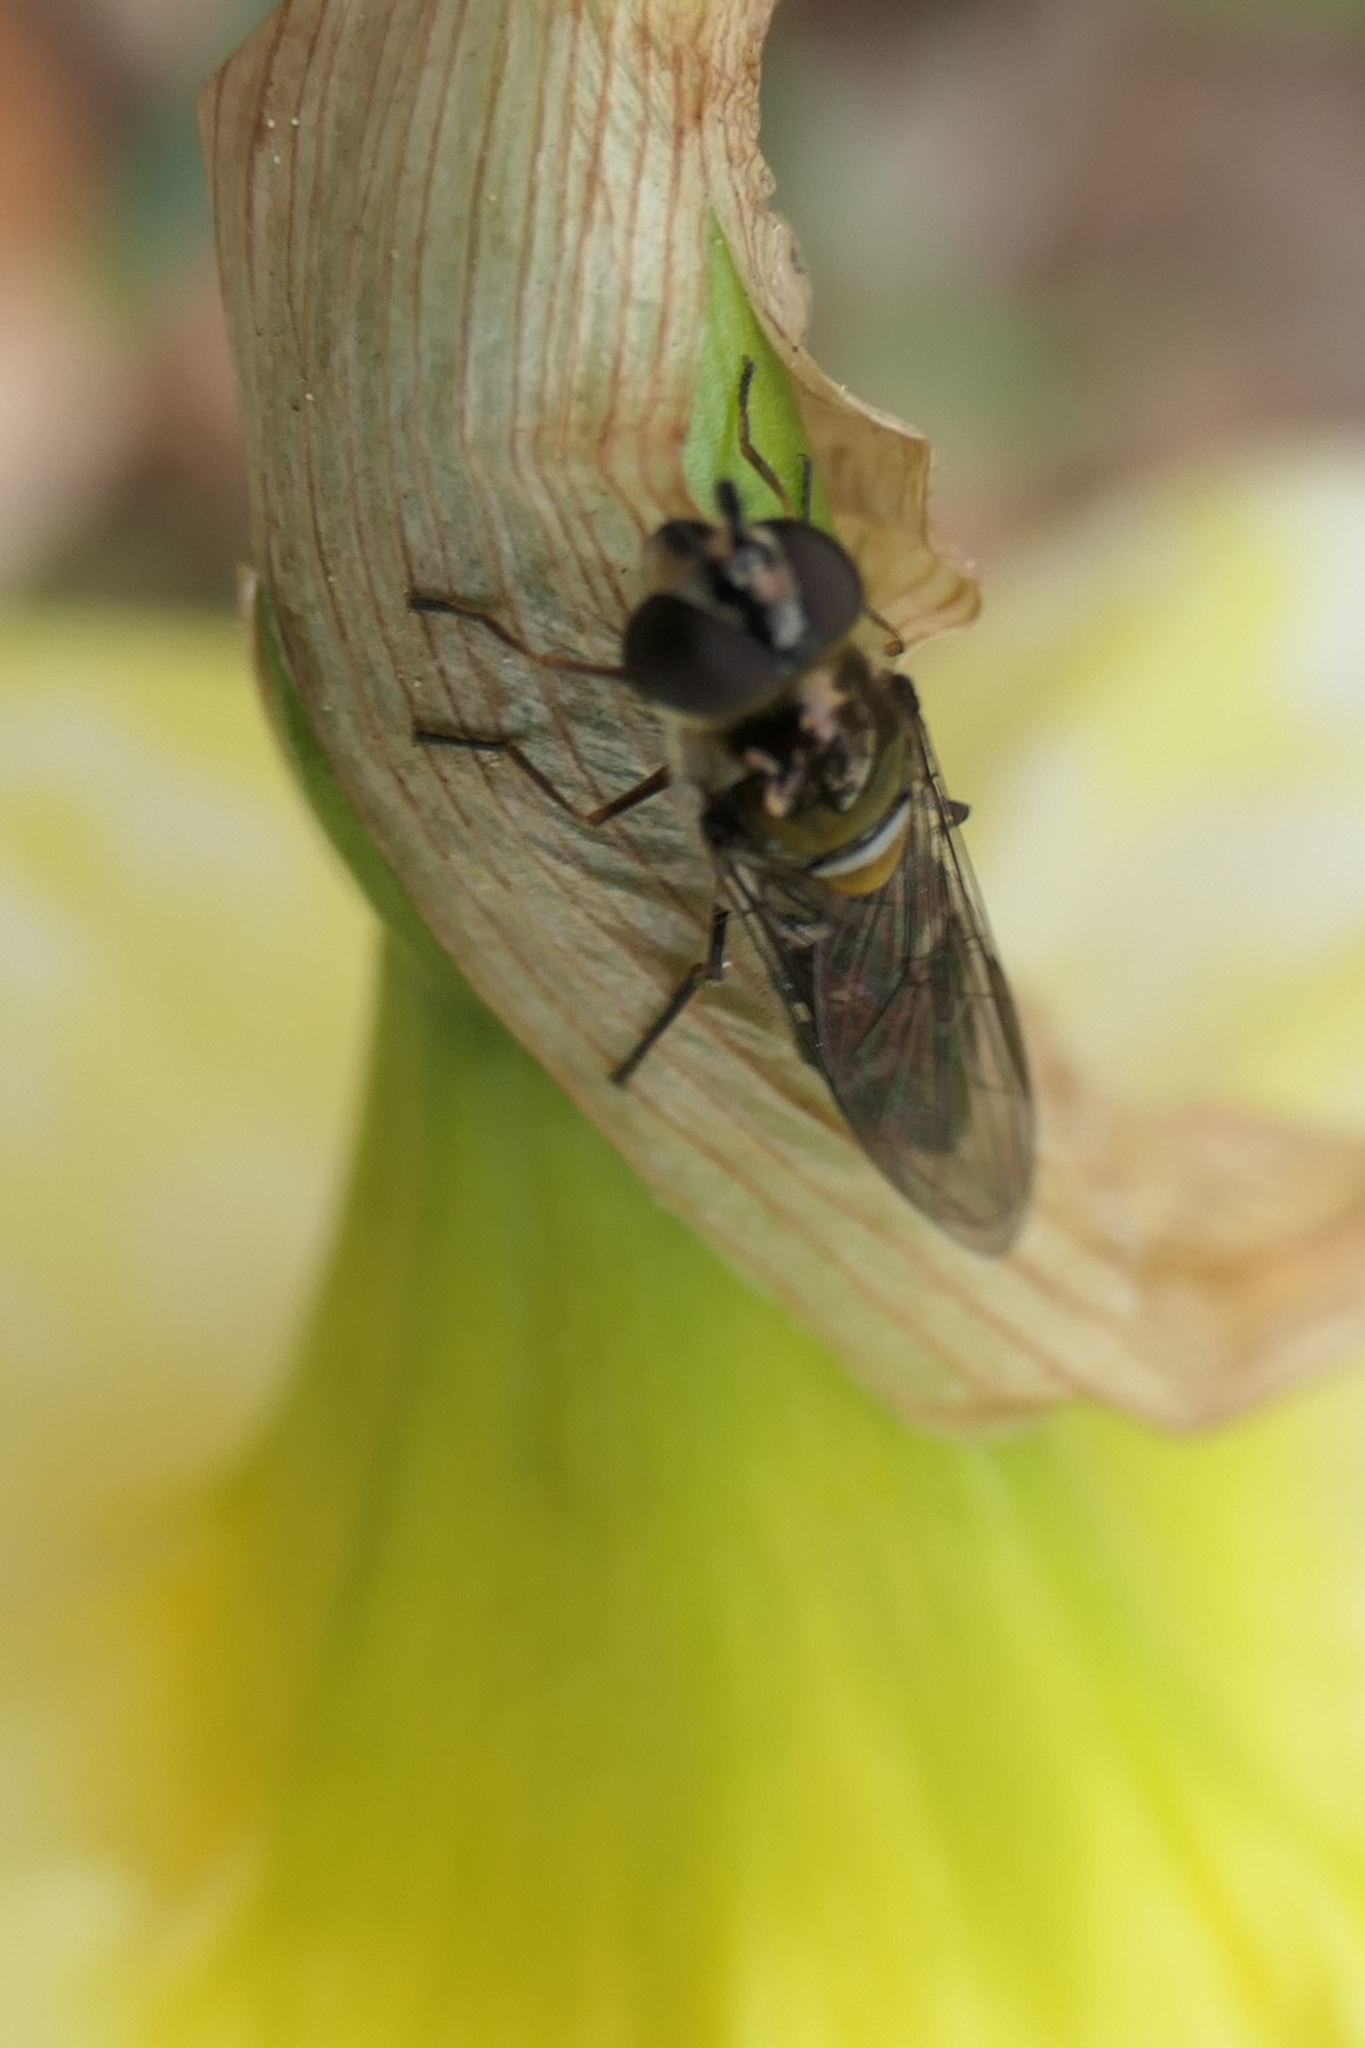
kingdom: Animalia
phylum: Arthropoda
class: Insecta
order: Diptera
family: Syrphidae
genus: Melangyna
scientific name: Melangyna novaezelandiae
